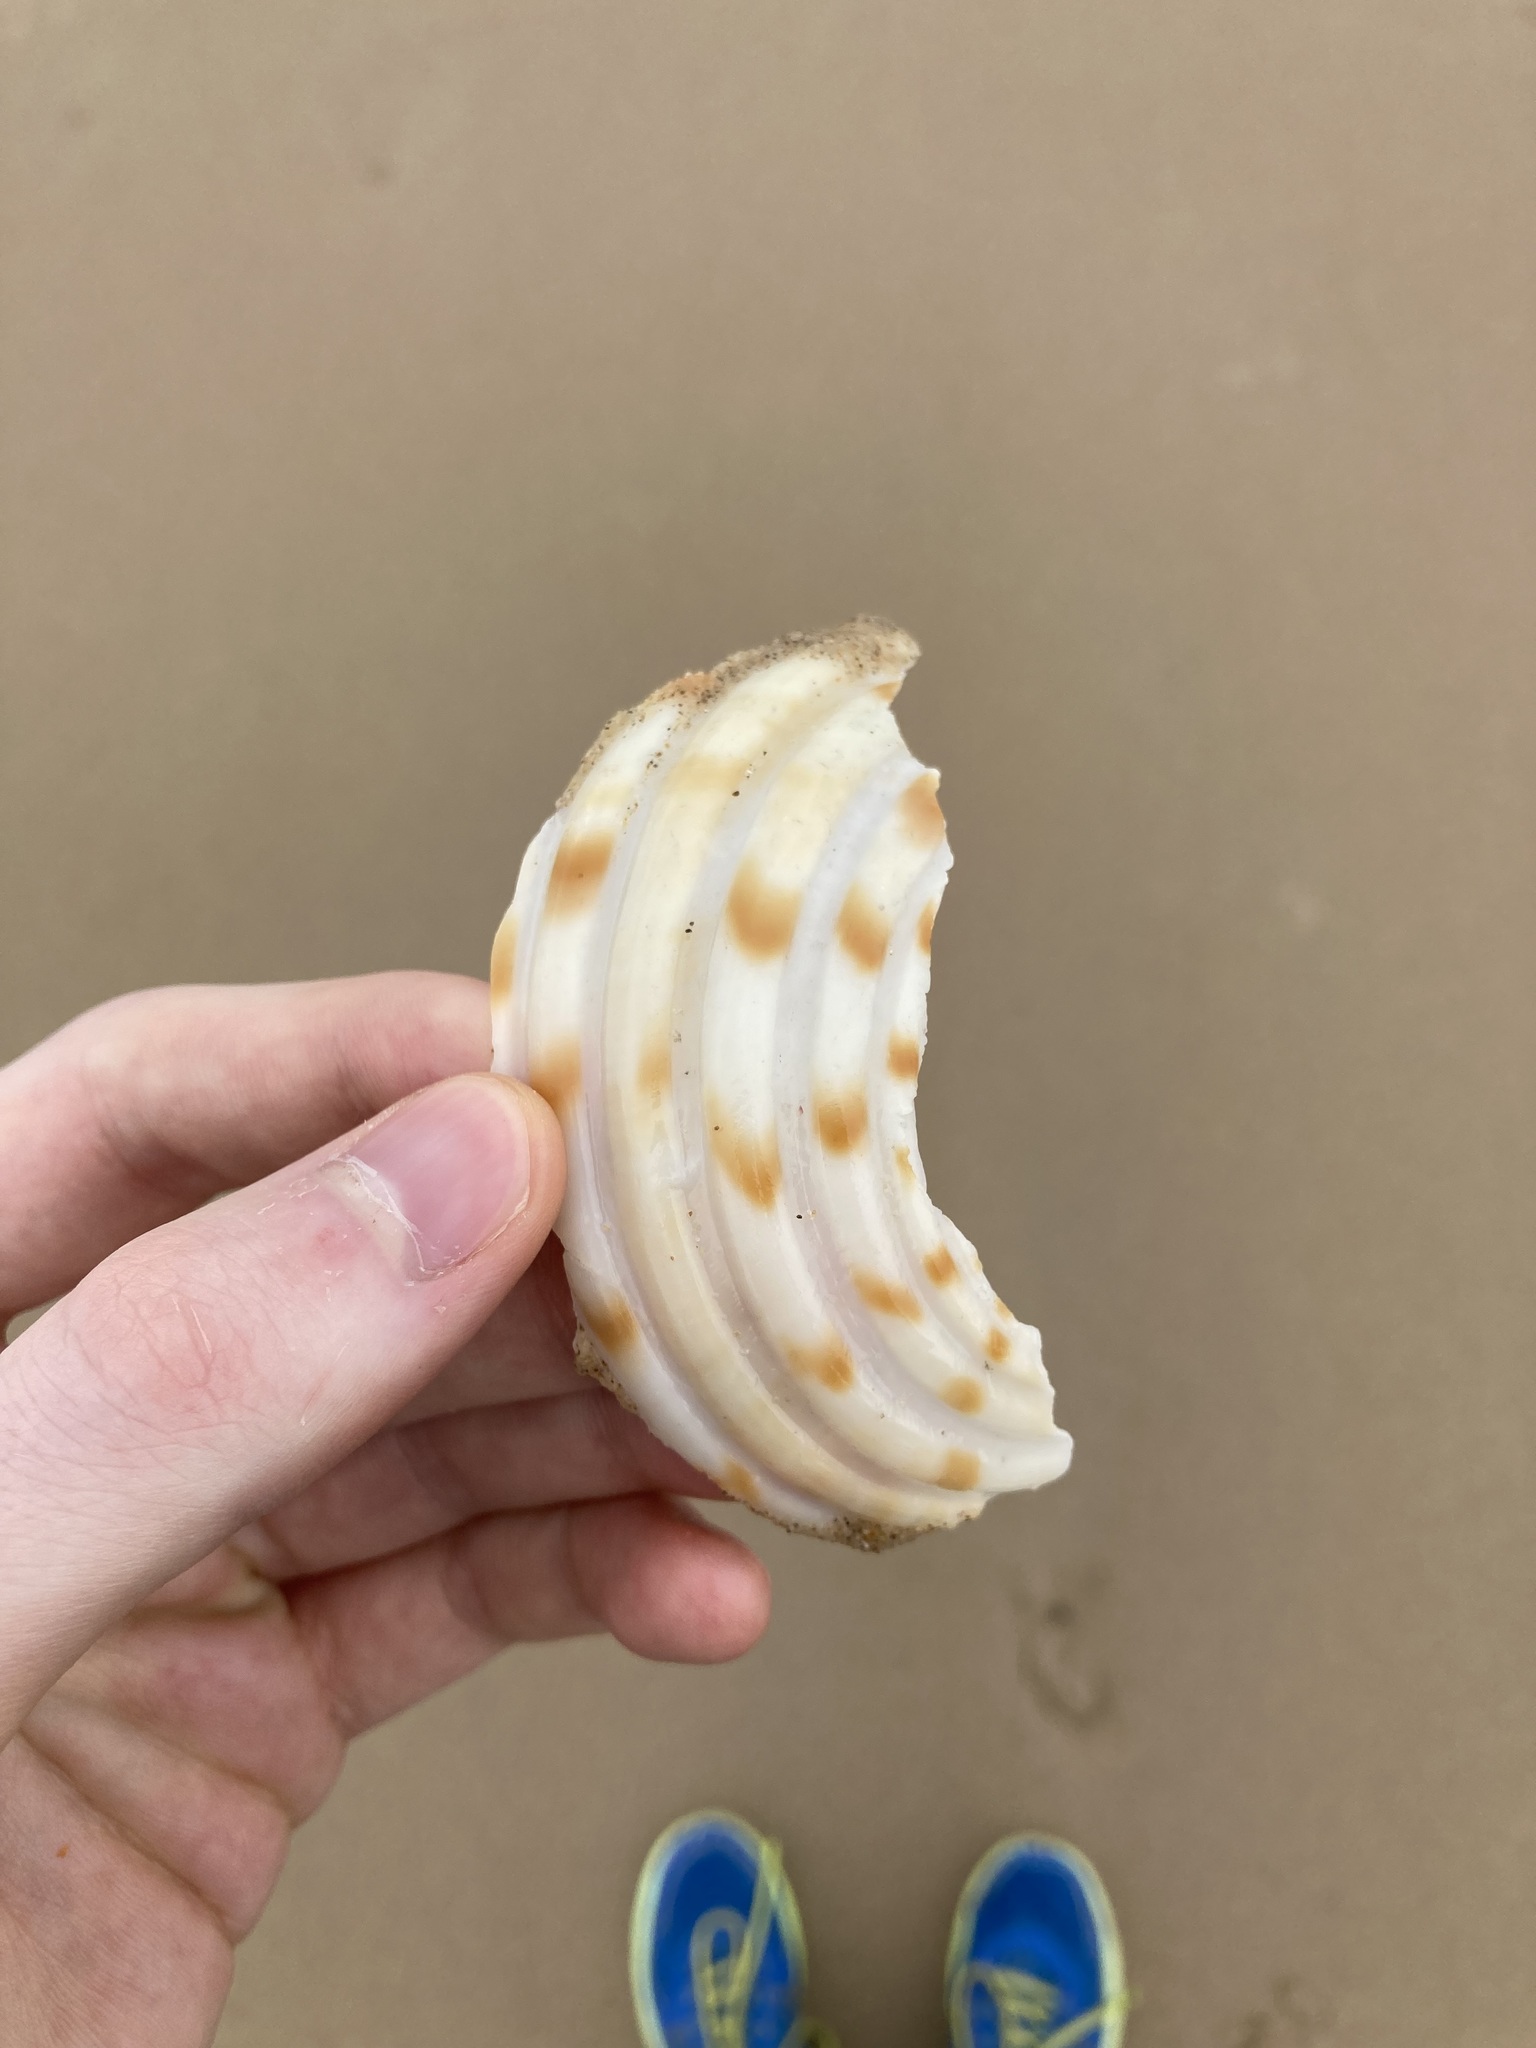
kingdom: Animalia
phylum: Mollusca
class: Gastropoda
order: Littorinimorpha
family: Tonnidae
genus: Tonna
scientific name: Tonna tankervillii
